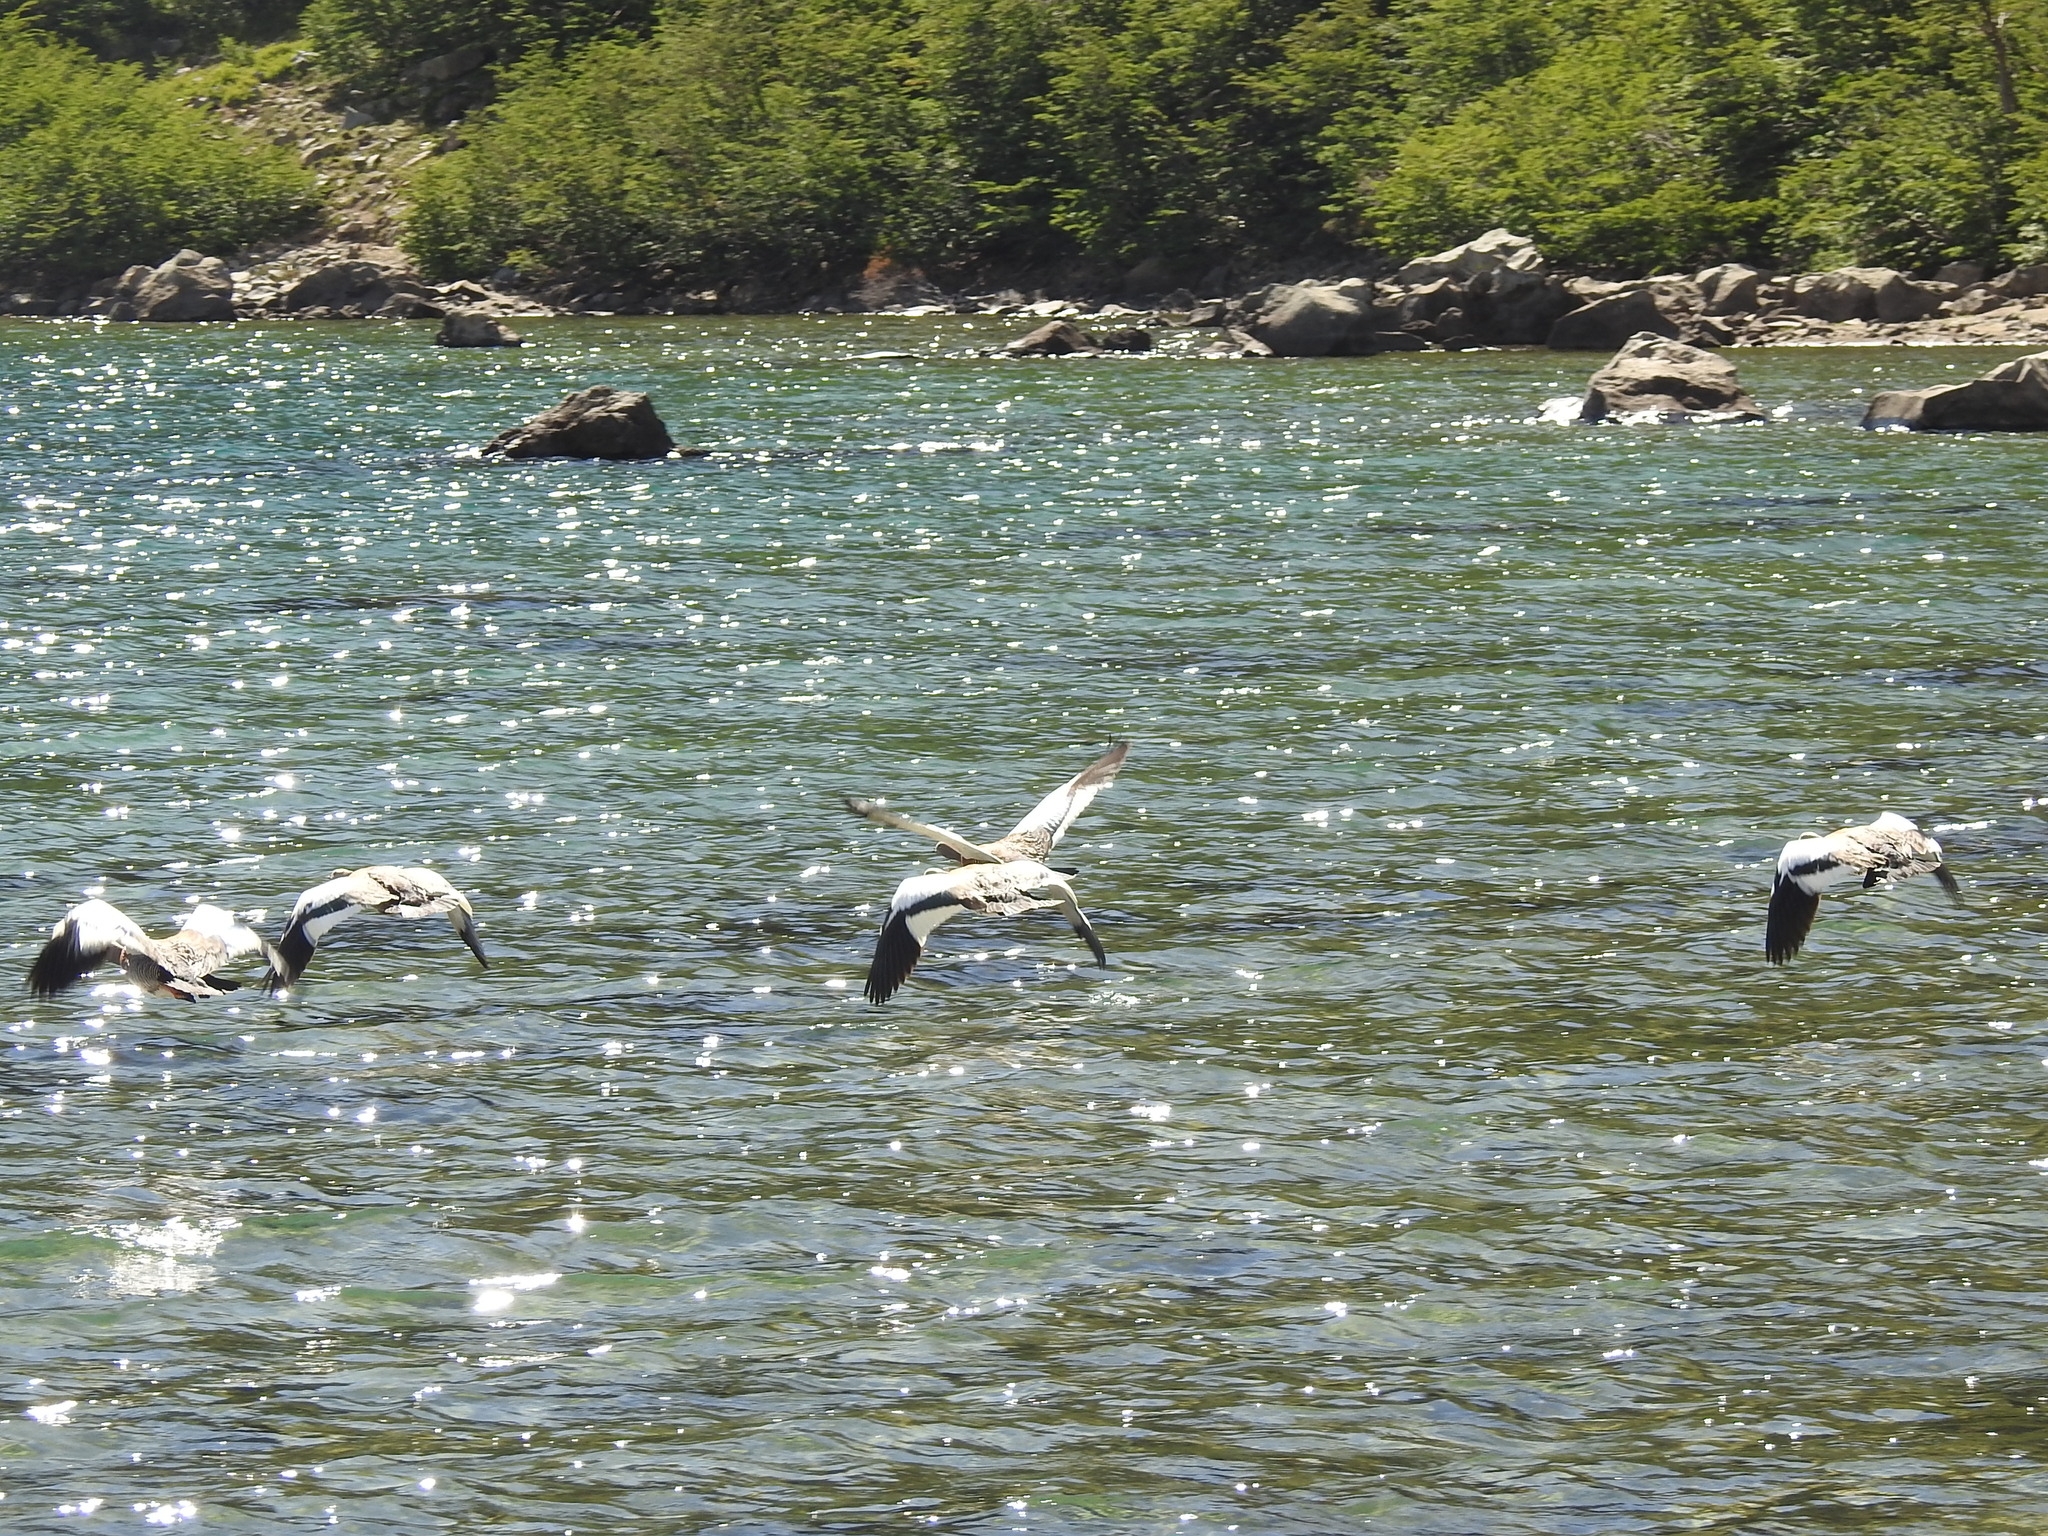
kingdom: Animalia
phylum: Chordata
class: Aves
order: Anseriformes
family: Anatidae
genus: Chloephaga
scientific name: Chloephaga poliocephala
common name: Ashy-headed goose
